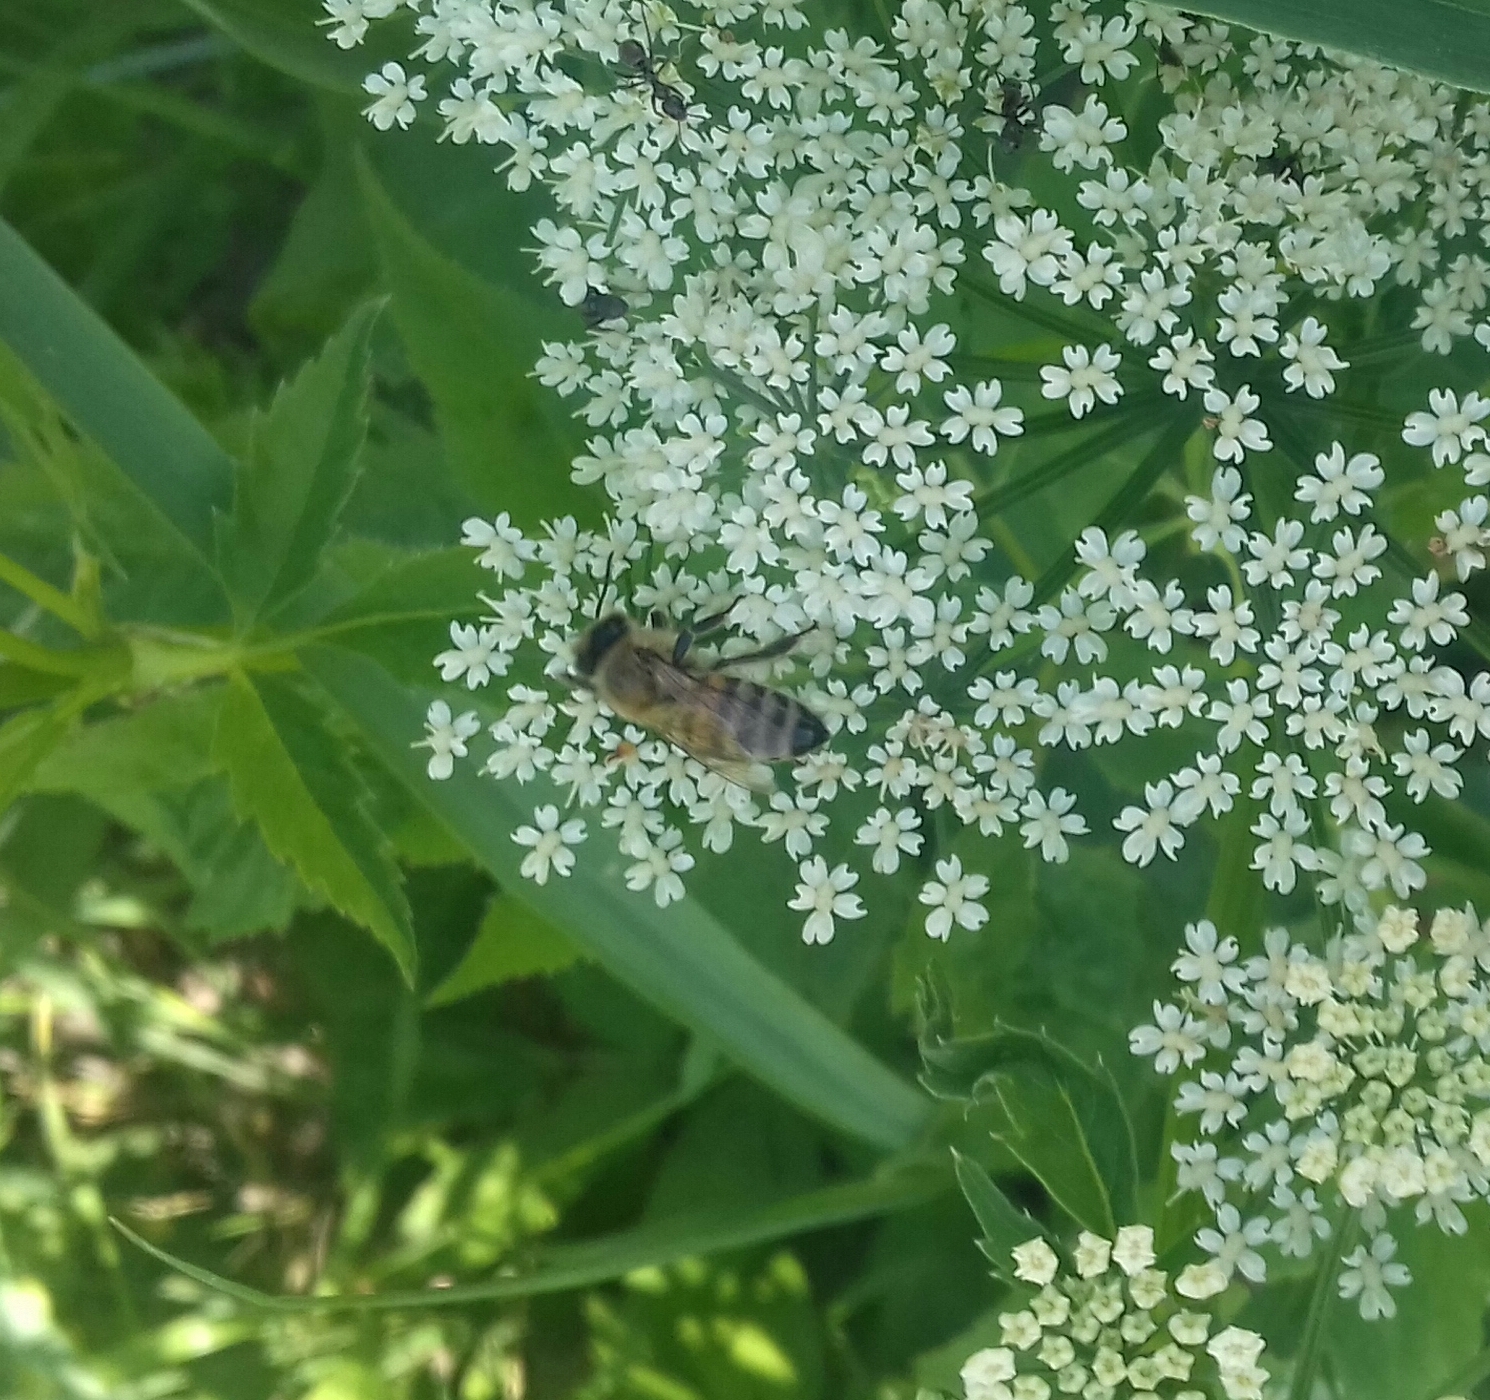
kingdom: Animalia
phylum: Arthropoda
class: Insecta
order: Hymenoptera
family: Apidae
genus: Apis
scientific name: Apis mellifera
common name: Honey bee
